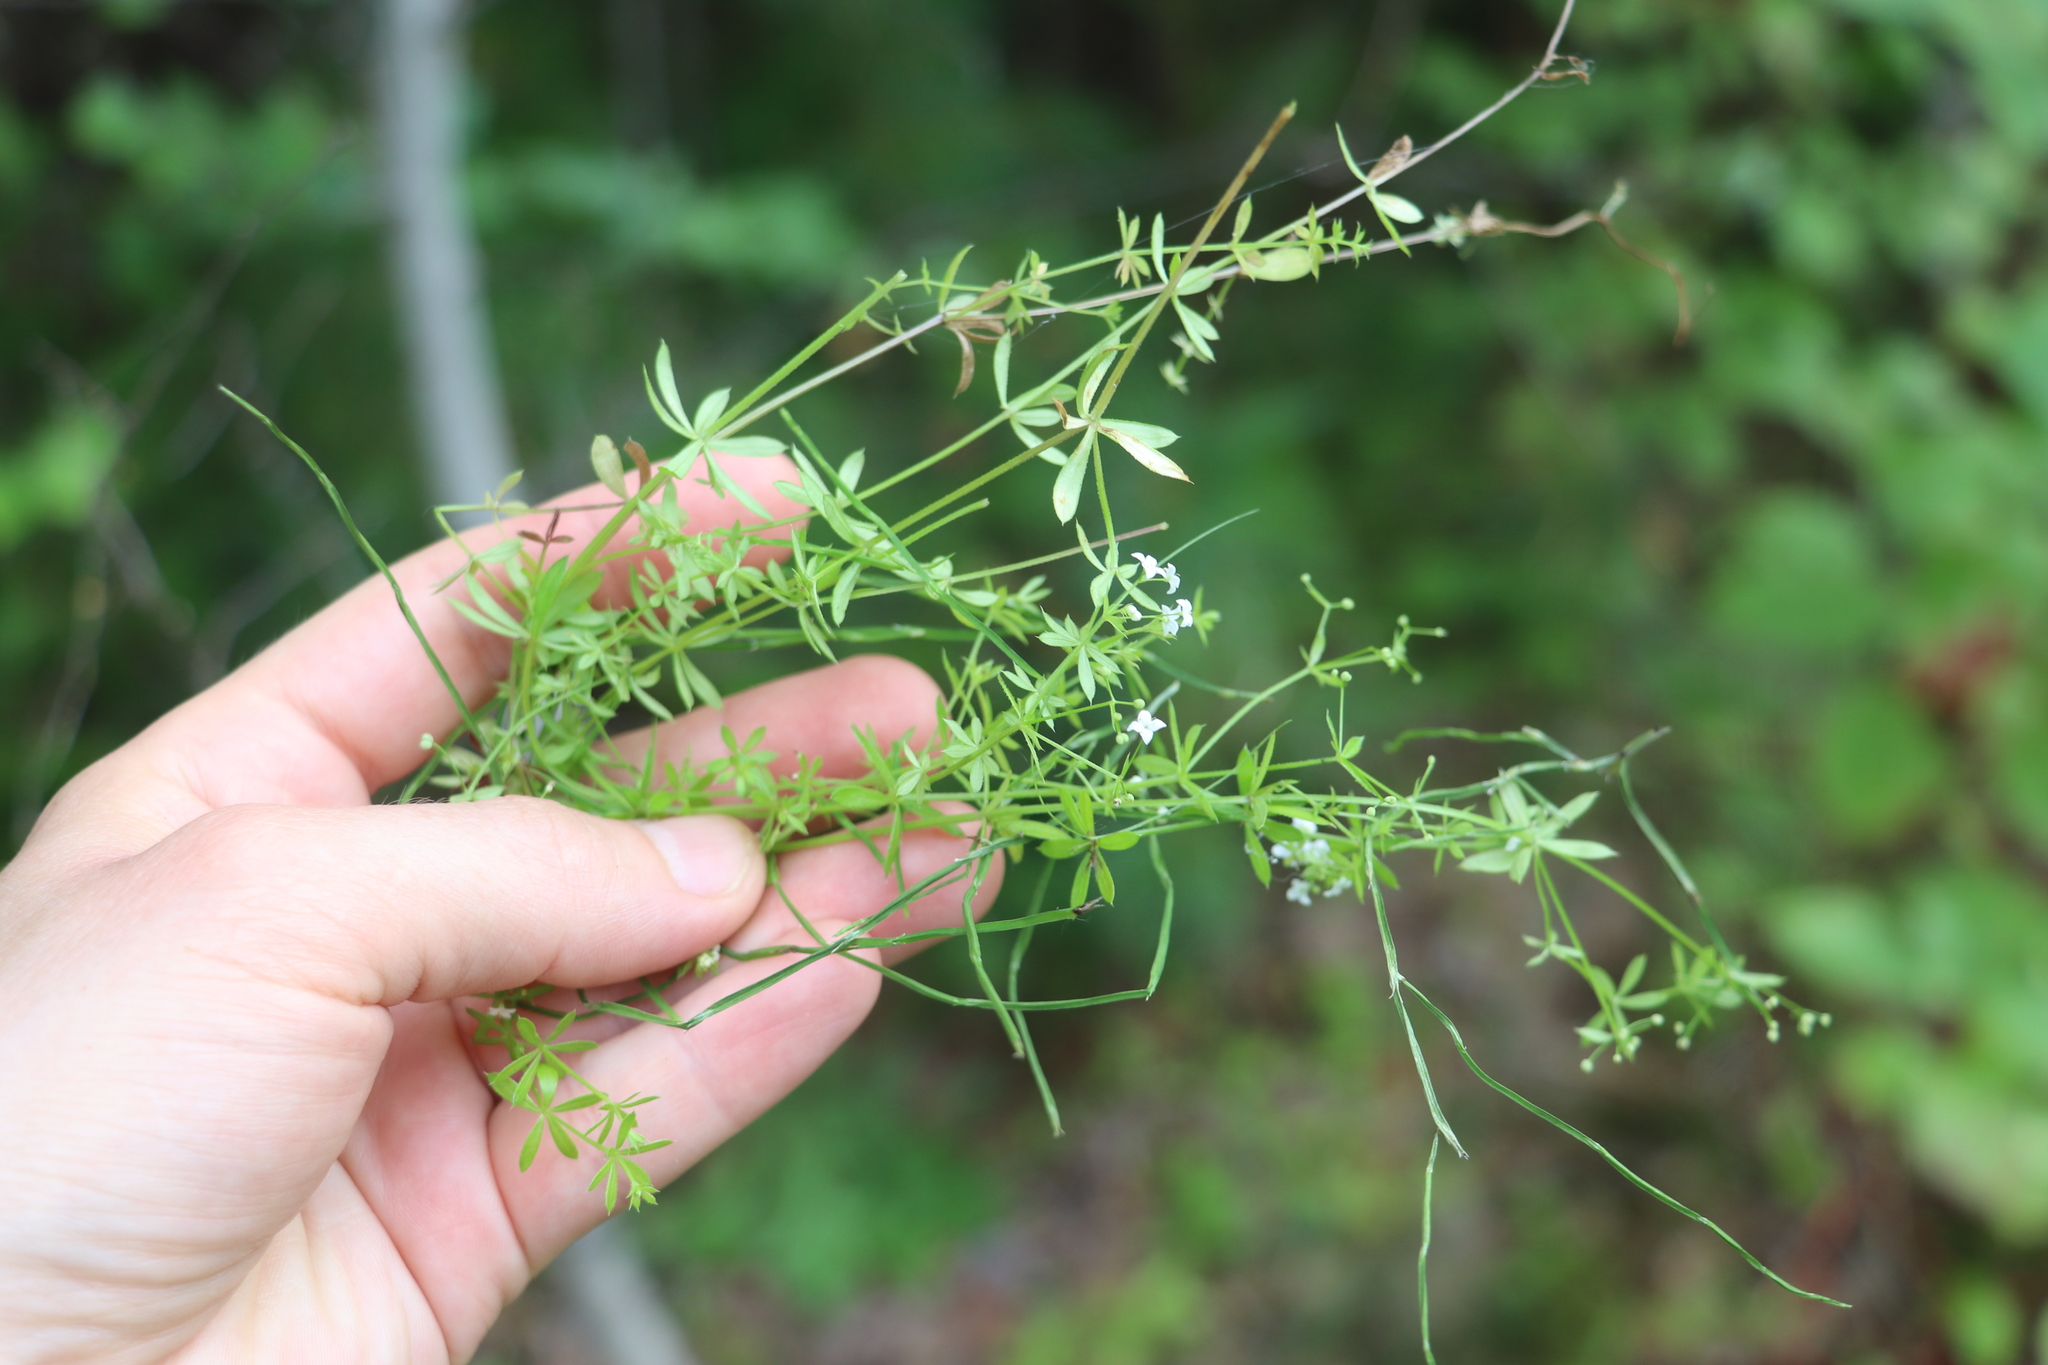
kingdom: Plantae
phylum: Tracheophyta
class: Magnoliopsida
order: Gentianales
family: Rubiaceae
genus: Galium
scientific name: Galium uliginosum
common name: Fen bedstraw
